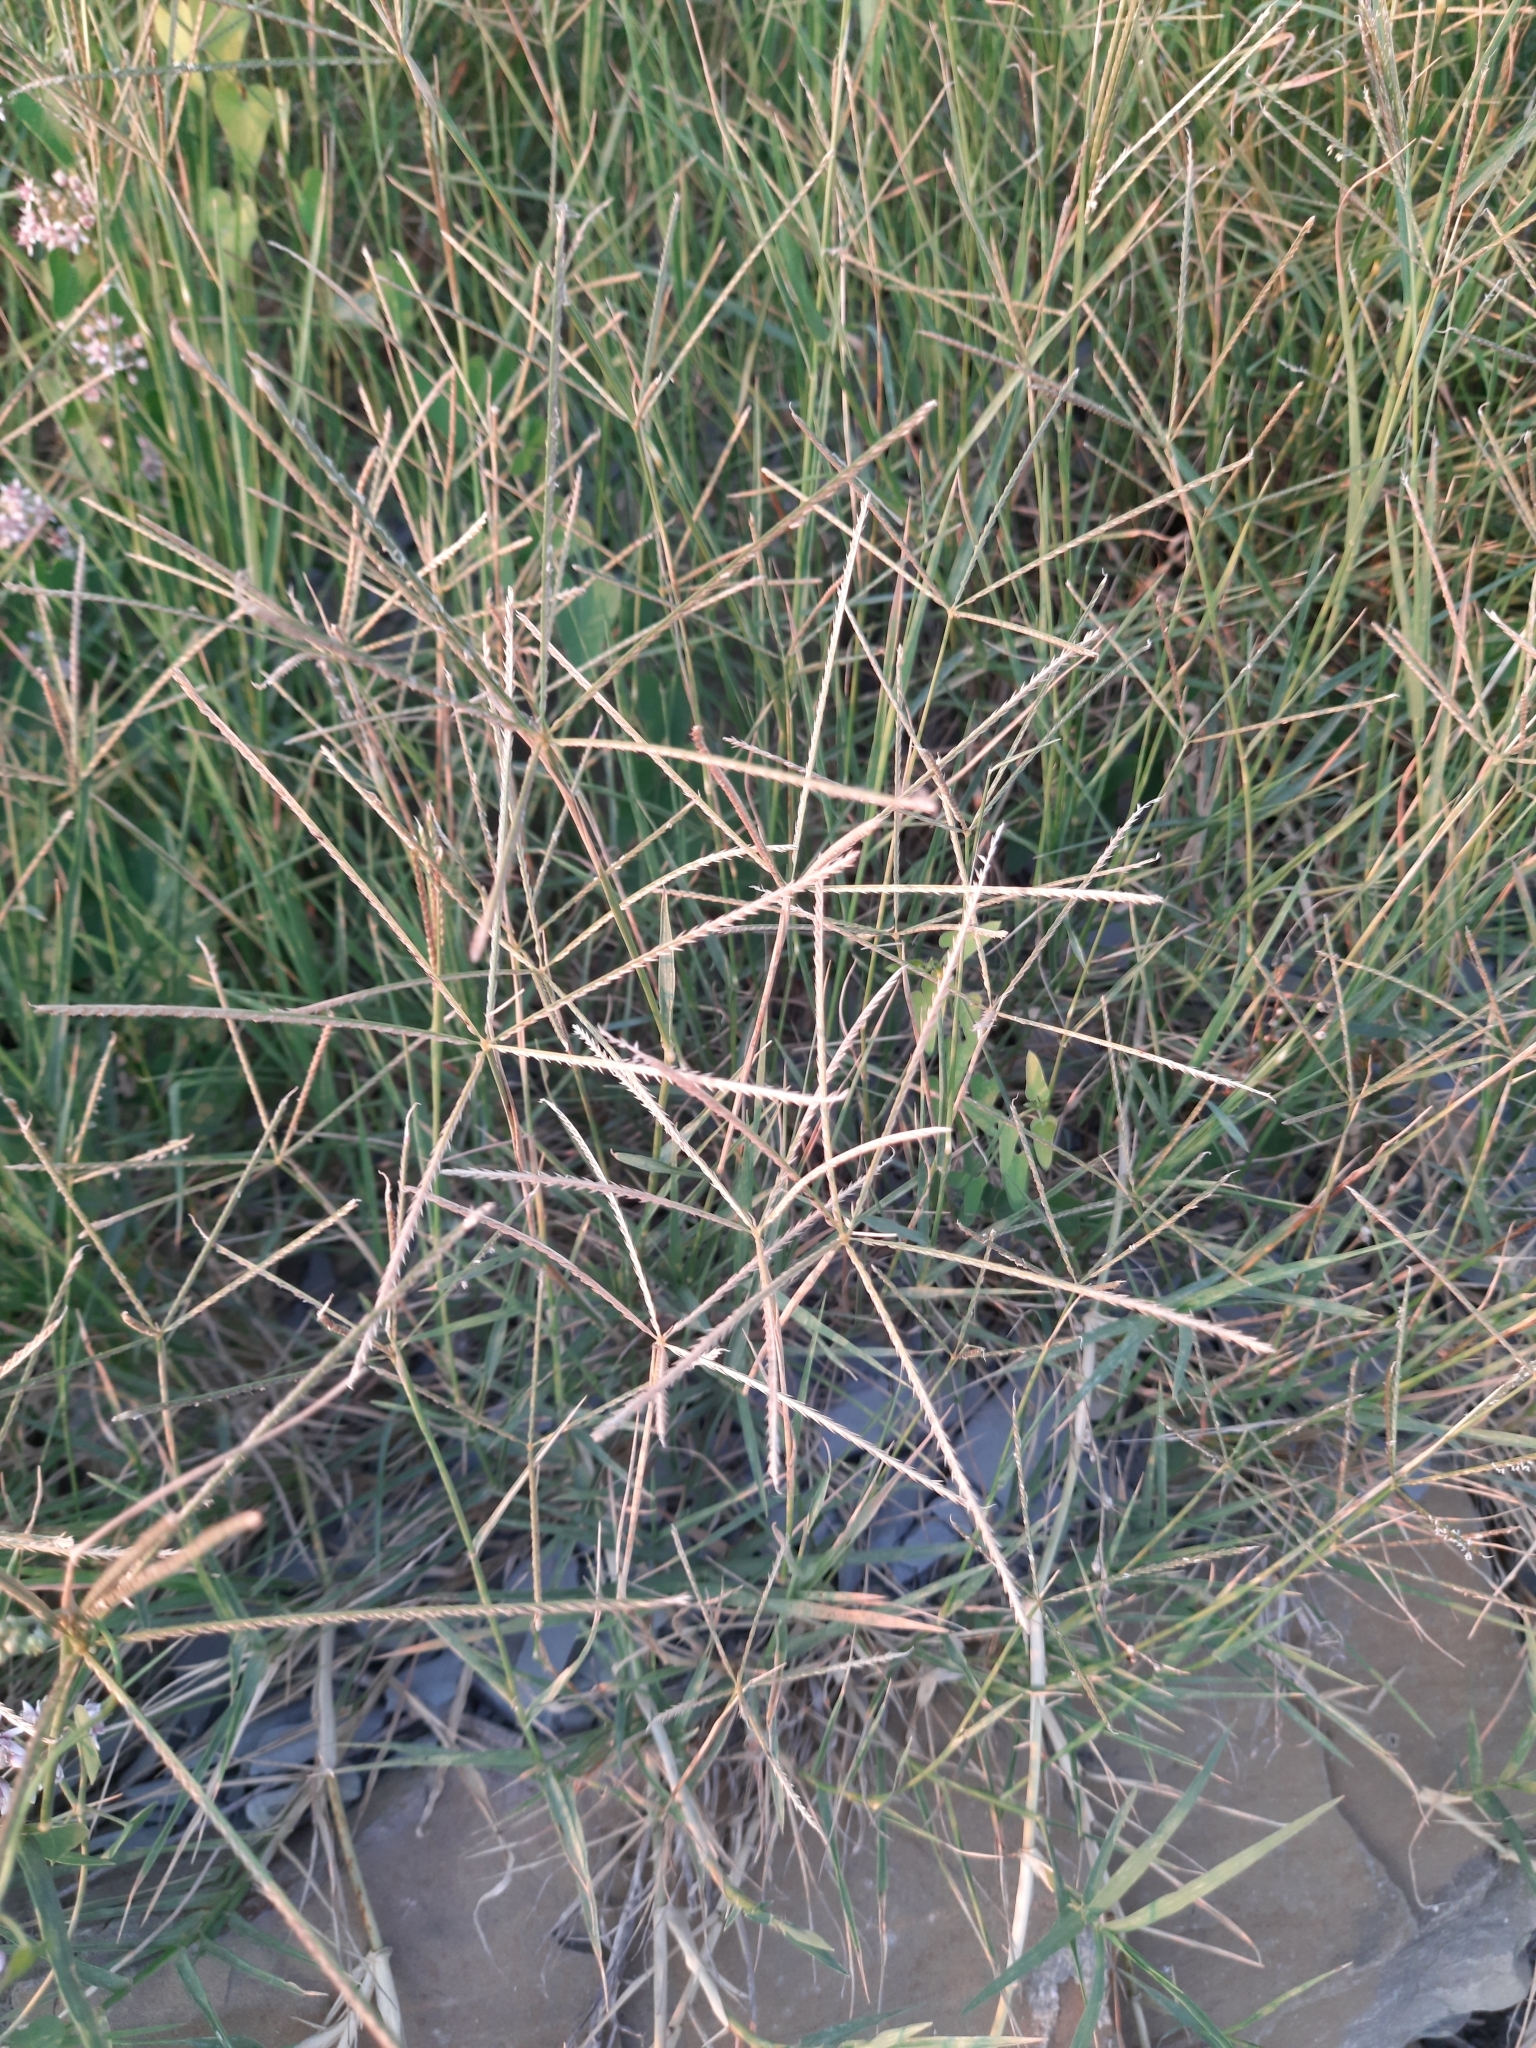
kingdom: Plantae
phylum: Tracheophyta
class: Liliopsida
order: Poales
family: Poaceae
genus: Cynodon
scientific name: Cynodon dactylon
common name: Bermuda grass
